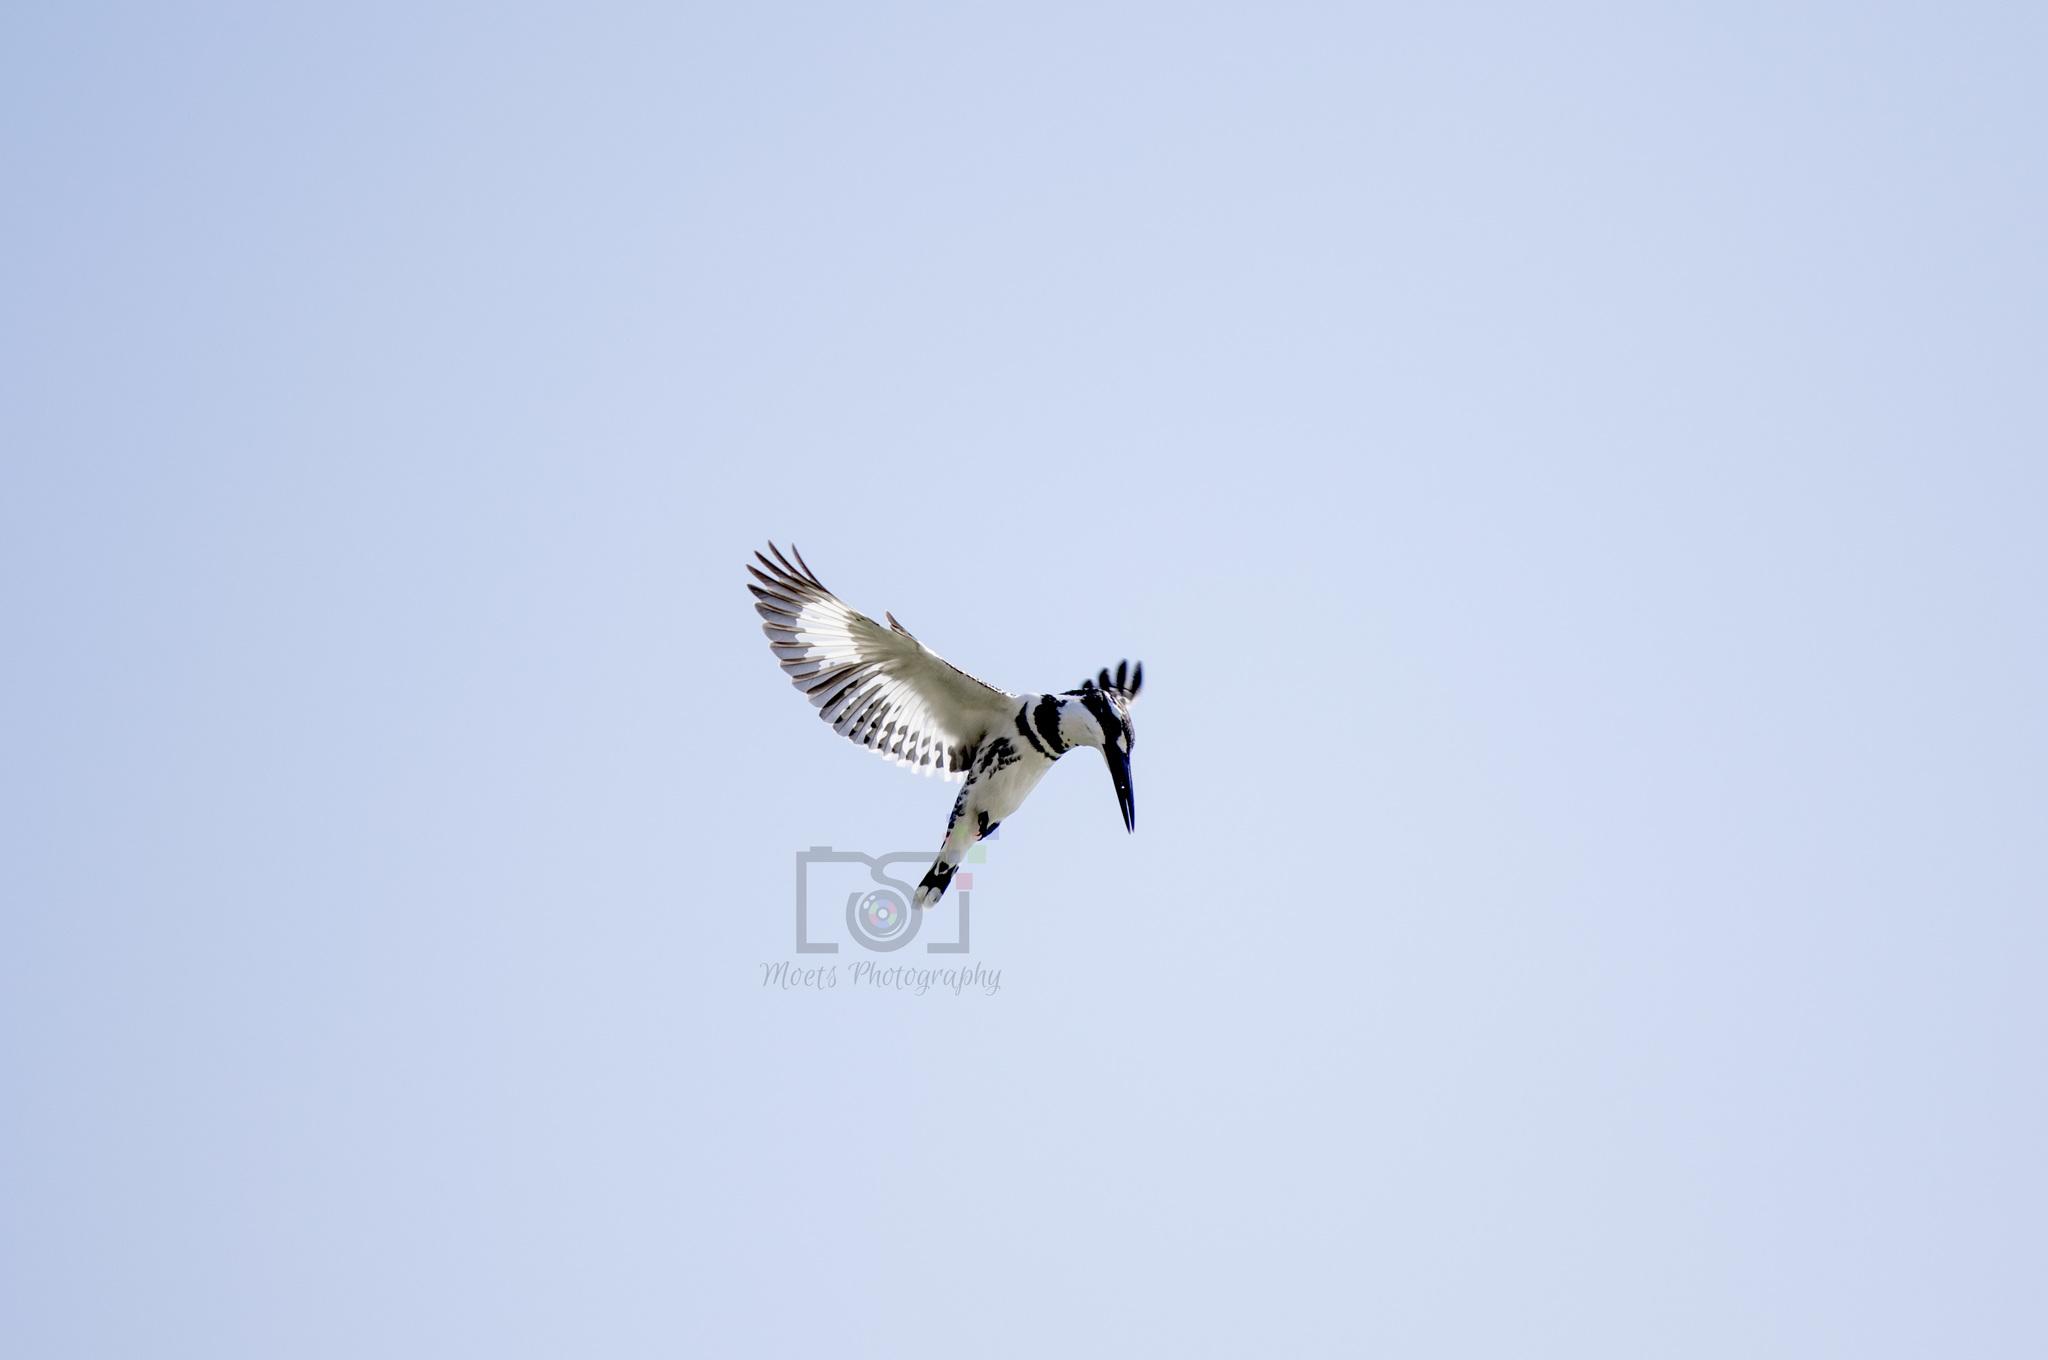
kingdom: Animalia
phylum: Chordata
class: Aves
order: Coraciiformes
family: Alcedinidae
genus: Ceryle
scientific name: Ceryle rudis
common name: Pied kingfisher
